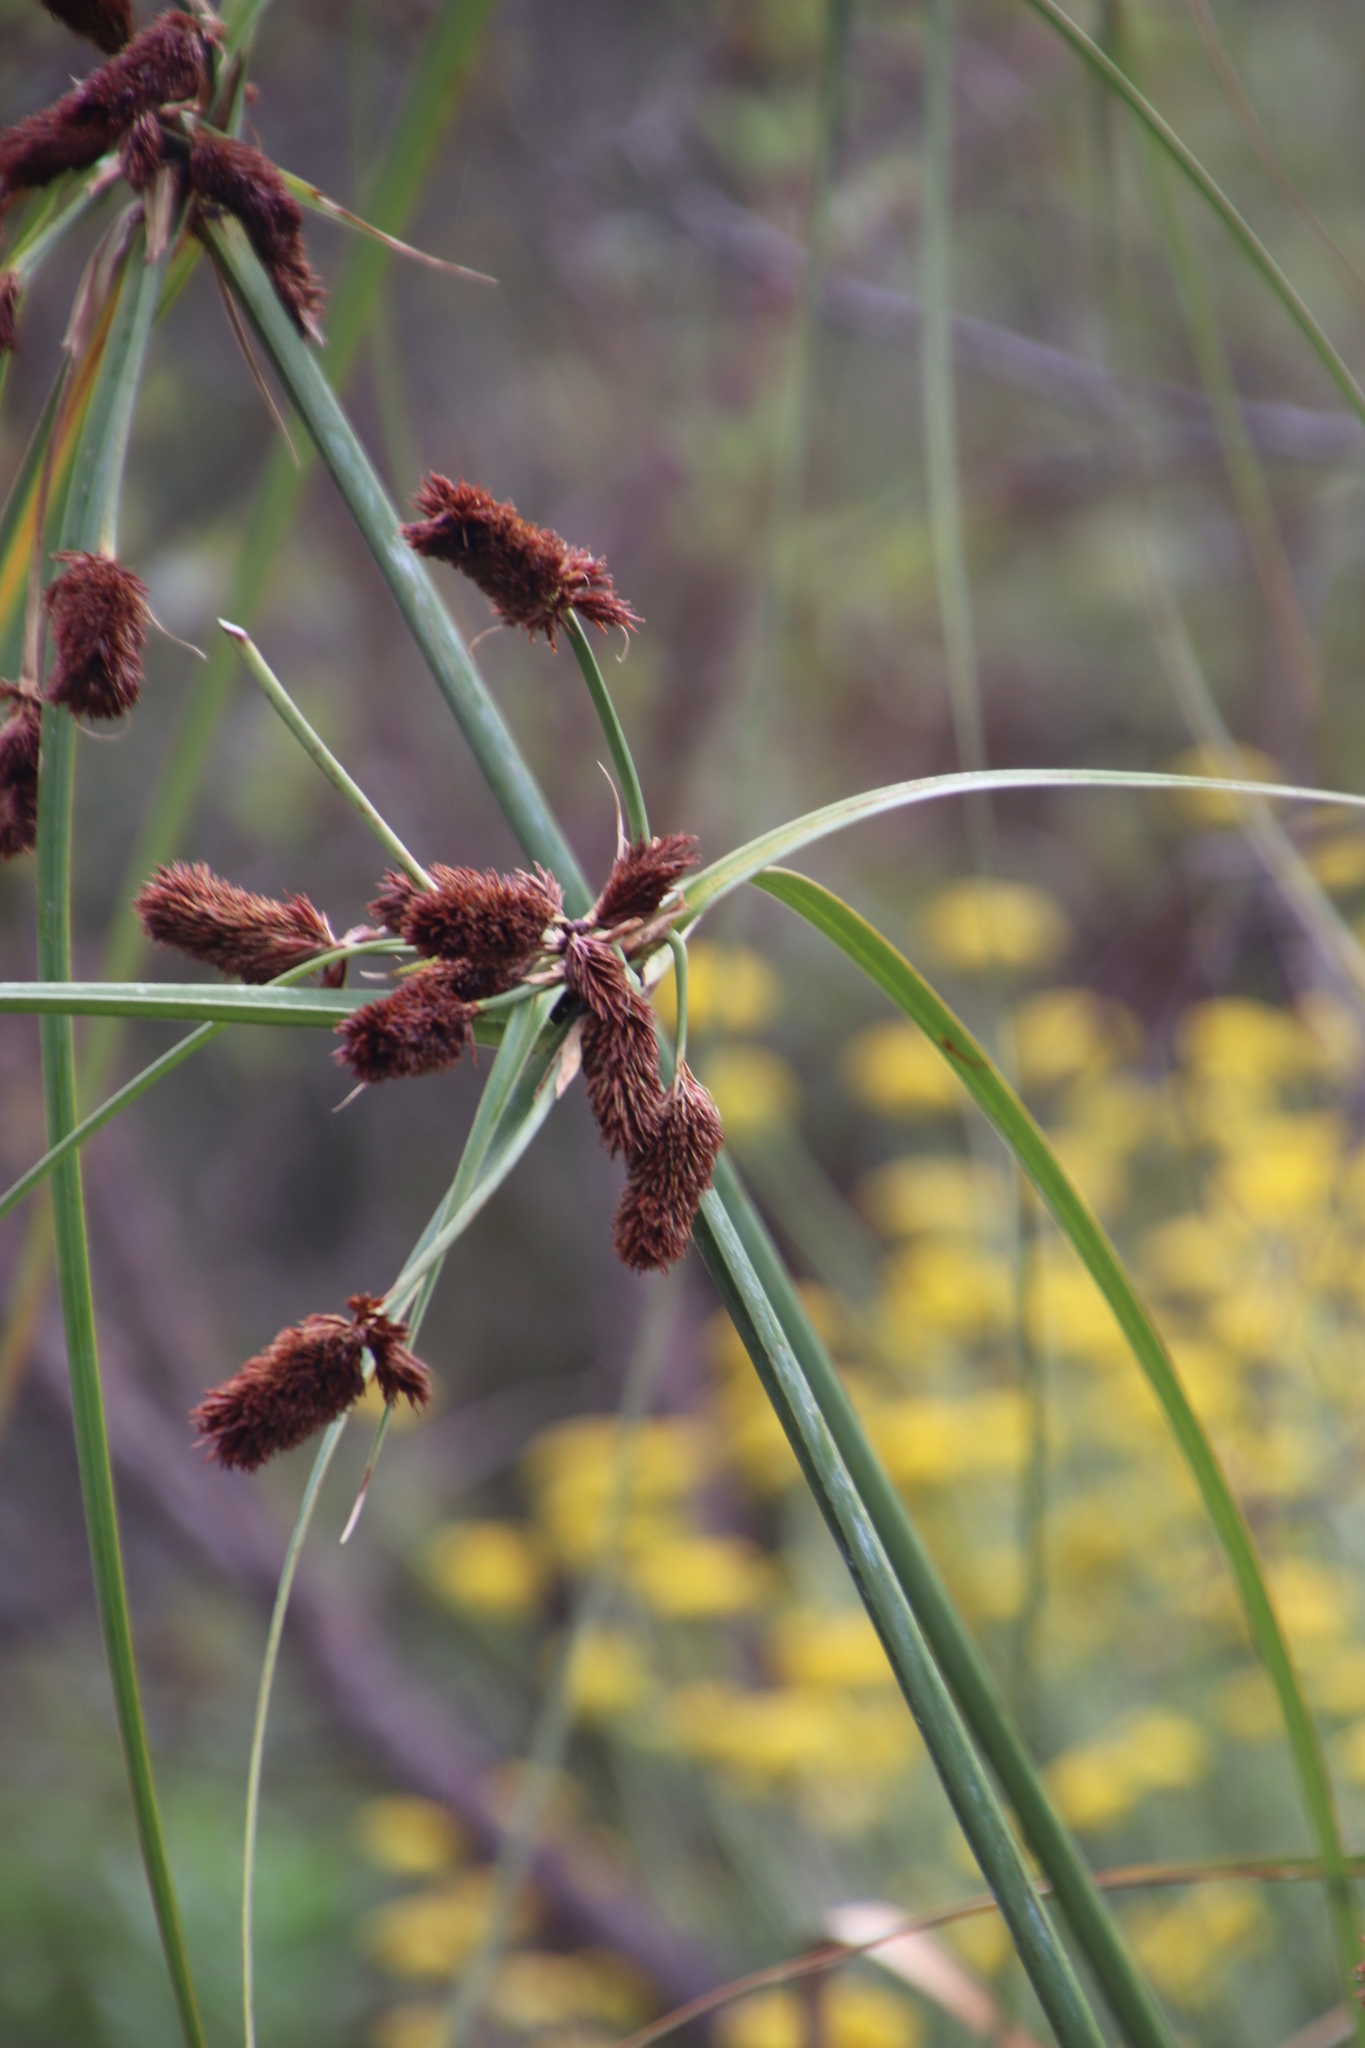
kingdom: Plantae
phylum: Tracheophyta
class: Liliopsida
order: Poales
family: Cyperaceae
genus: Cyperus
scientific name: Cyperus thunbergii
